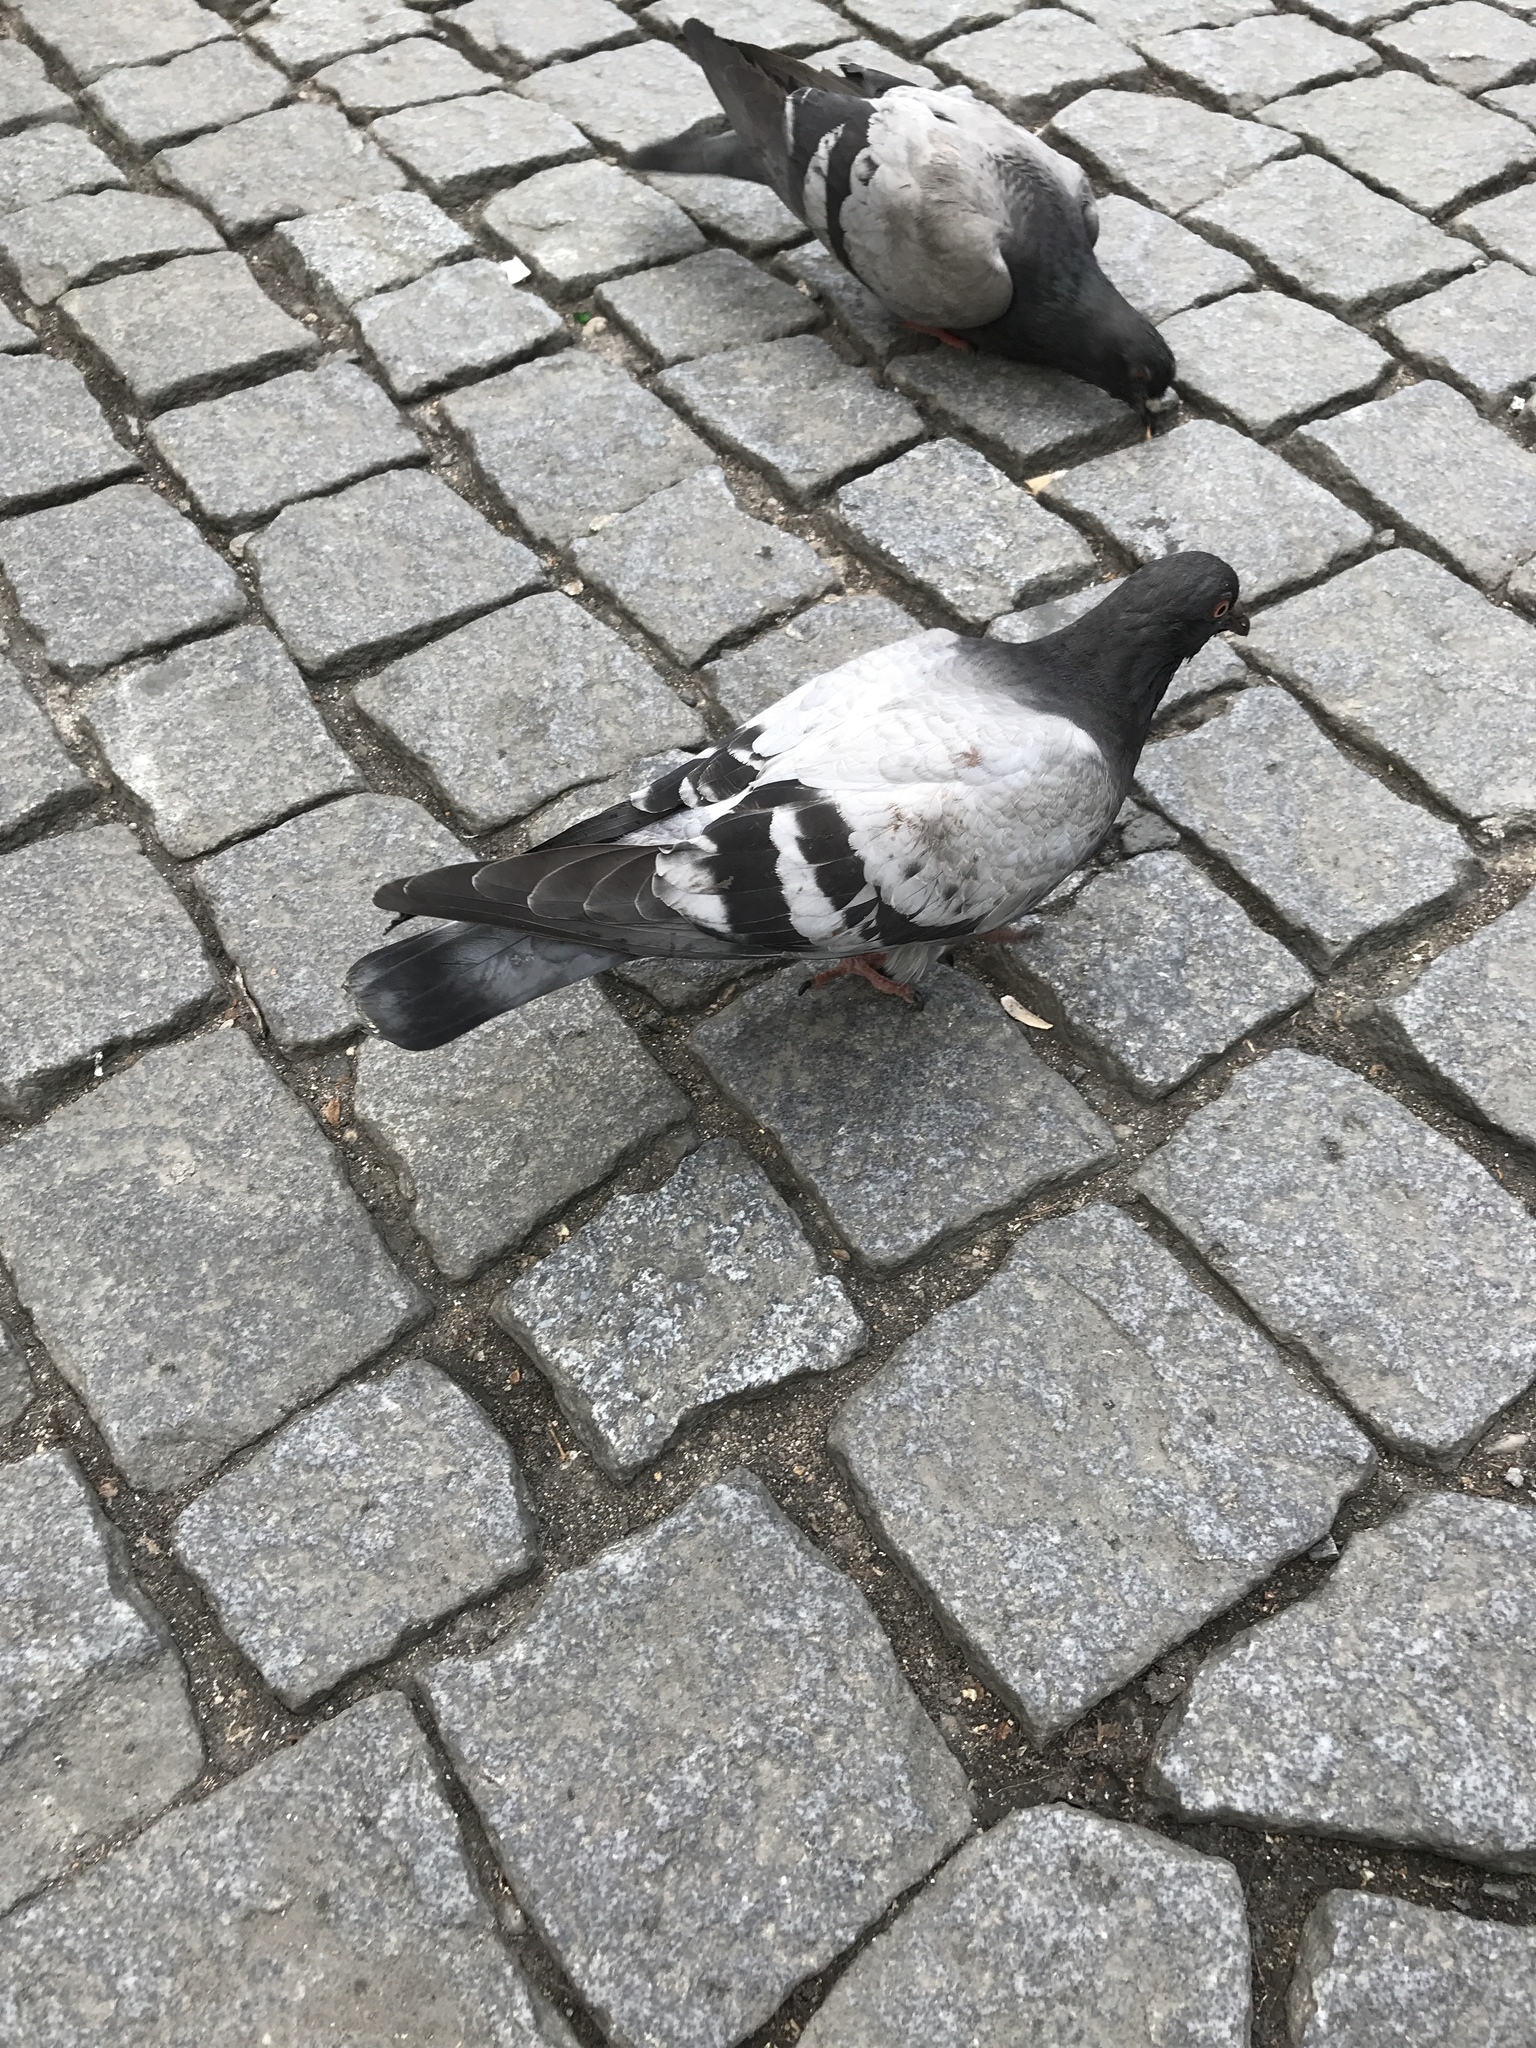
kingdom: Animalia
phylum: Chordata
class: Aves
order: Columbiformes
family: Columbidae
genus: Columba
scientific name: Columba livia
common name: Rock pigeon
